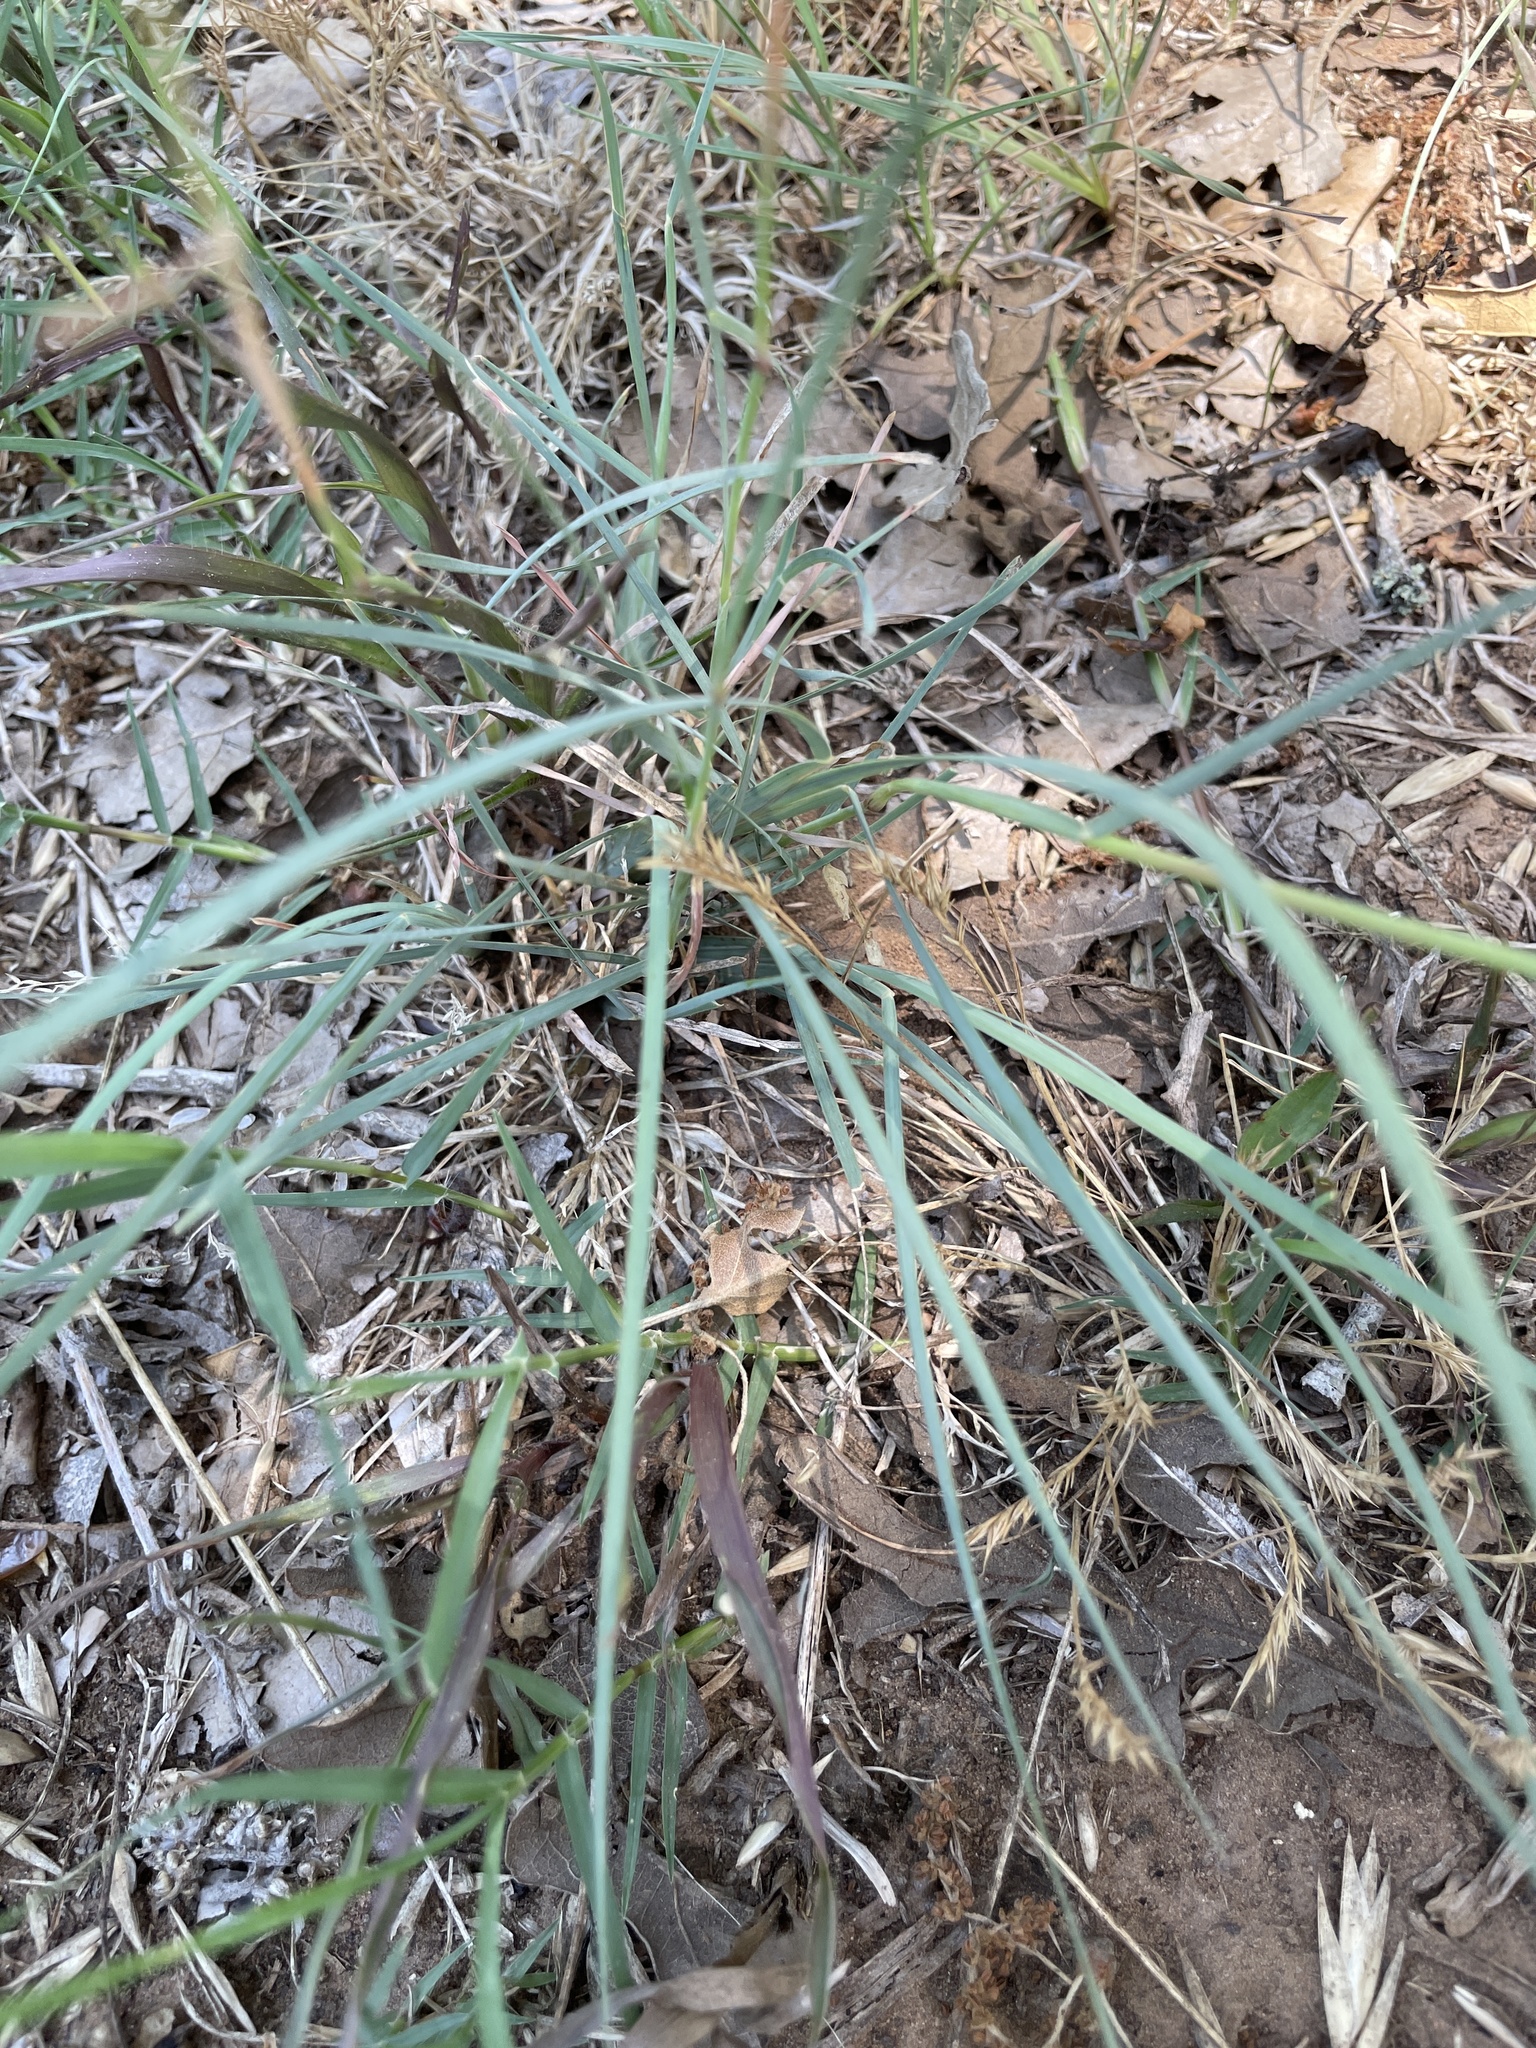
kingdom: Plantae
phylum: Tracheophyta
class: Liliopsida
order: Poales
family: Poaceae
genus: Chloris
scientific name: Chloris cucullata
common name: Hooded windmill grass
